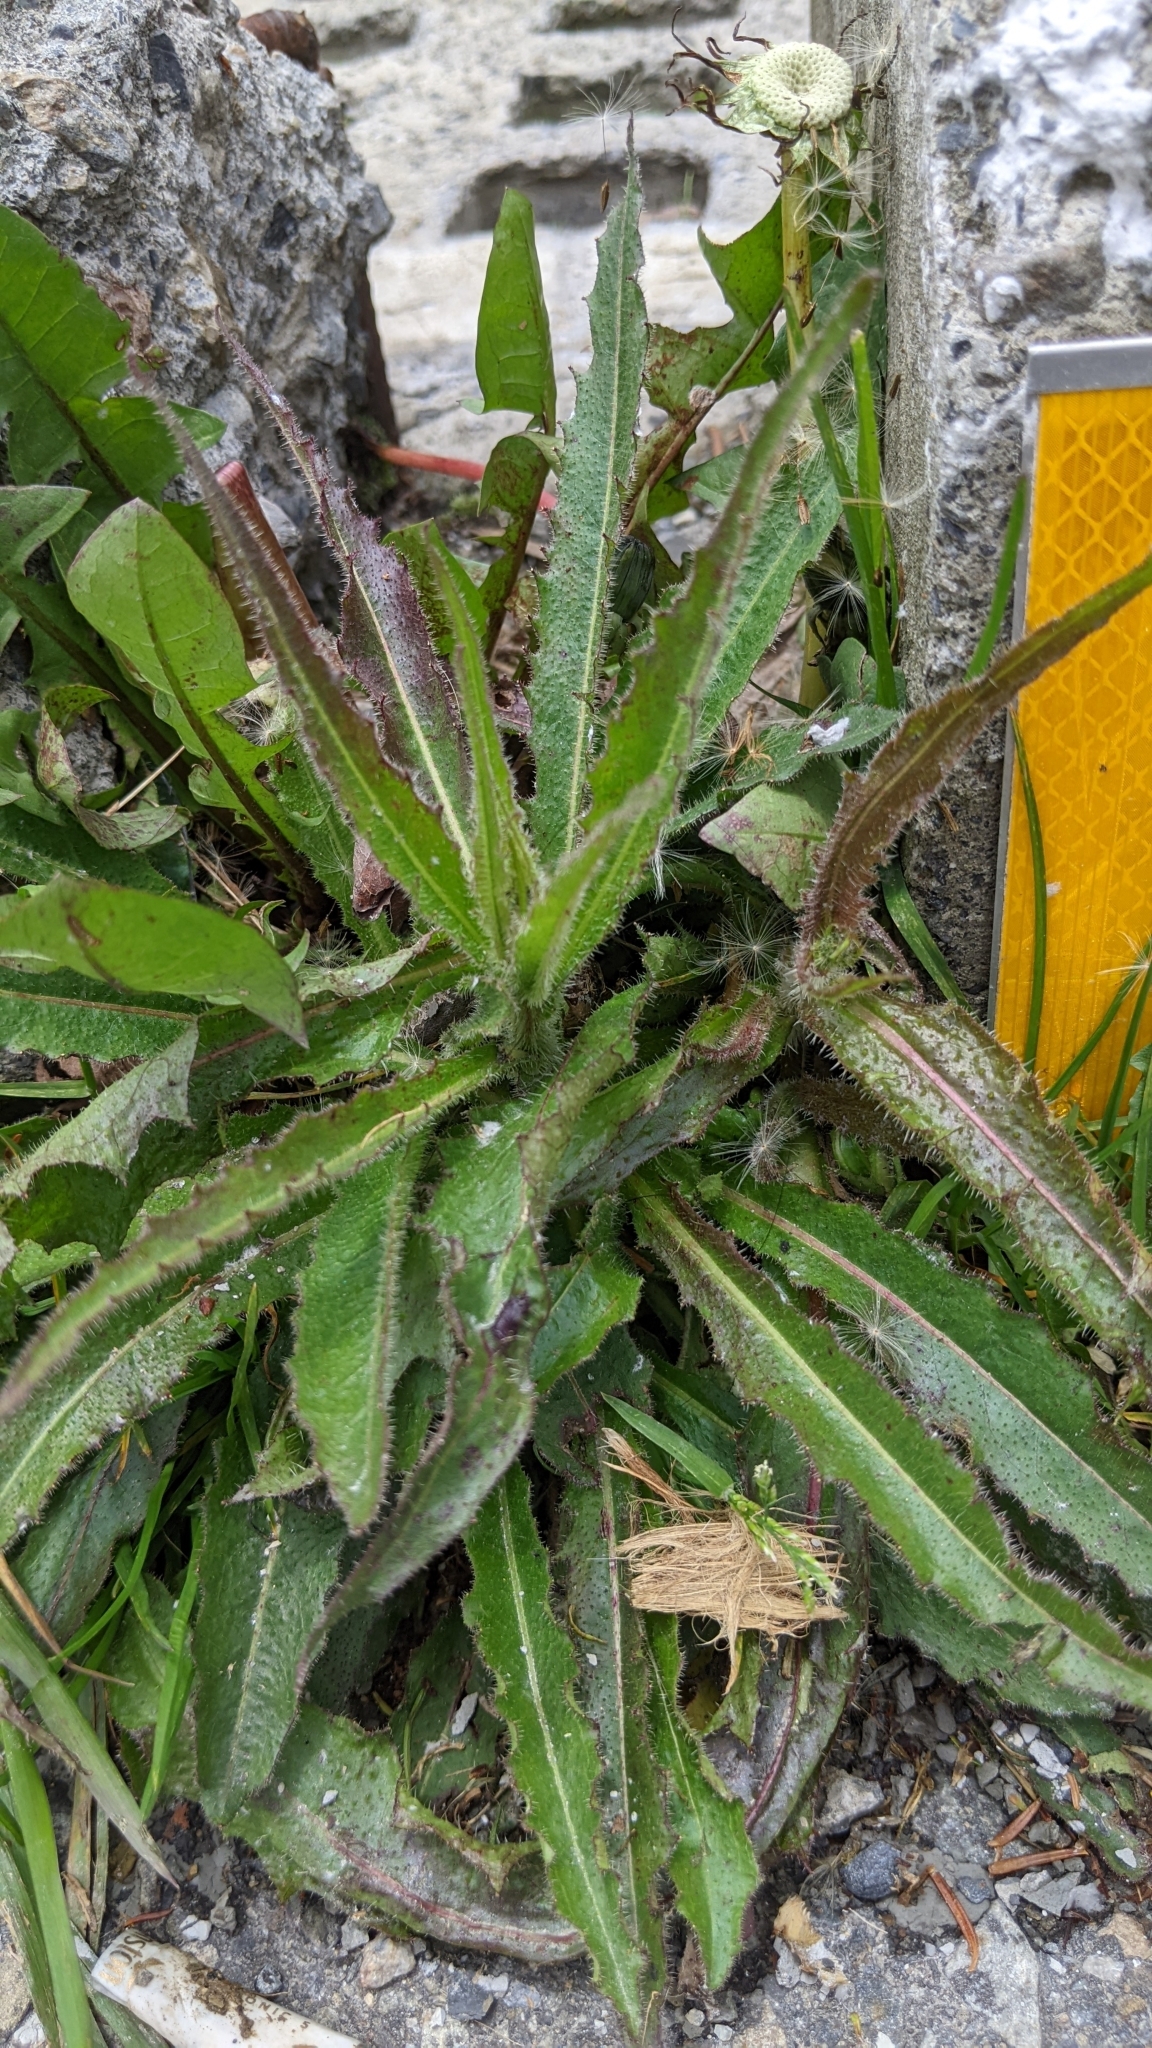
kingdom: Plantae
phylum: Tracheophyta
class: Magnoliopsida
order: Asterales
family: Asteraceae
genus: Picris
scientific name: Picris hieracioides
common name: Hawkweed oxtongue
